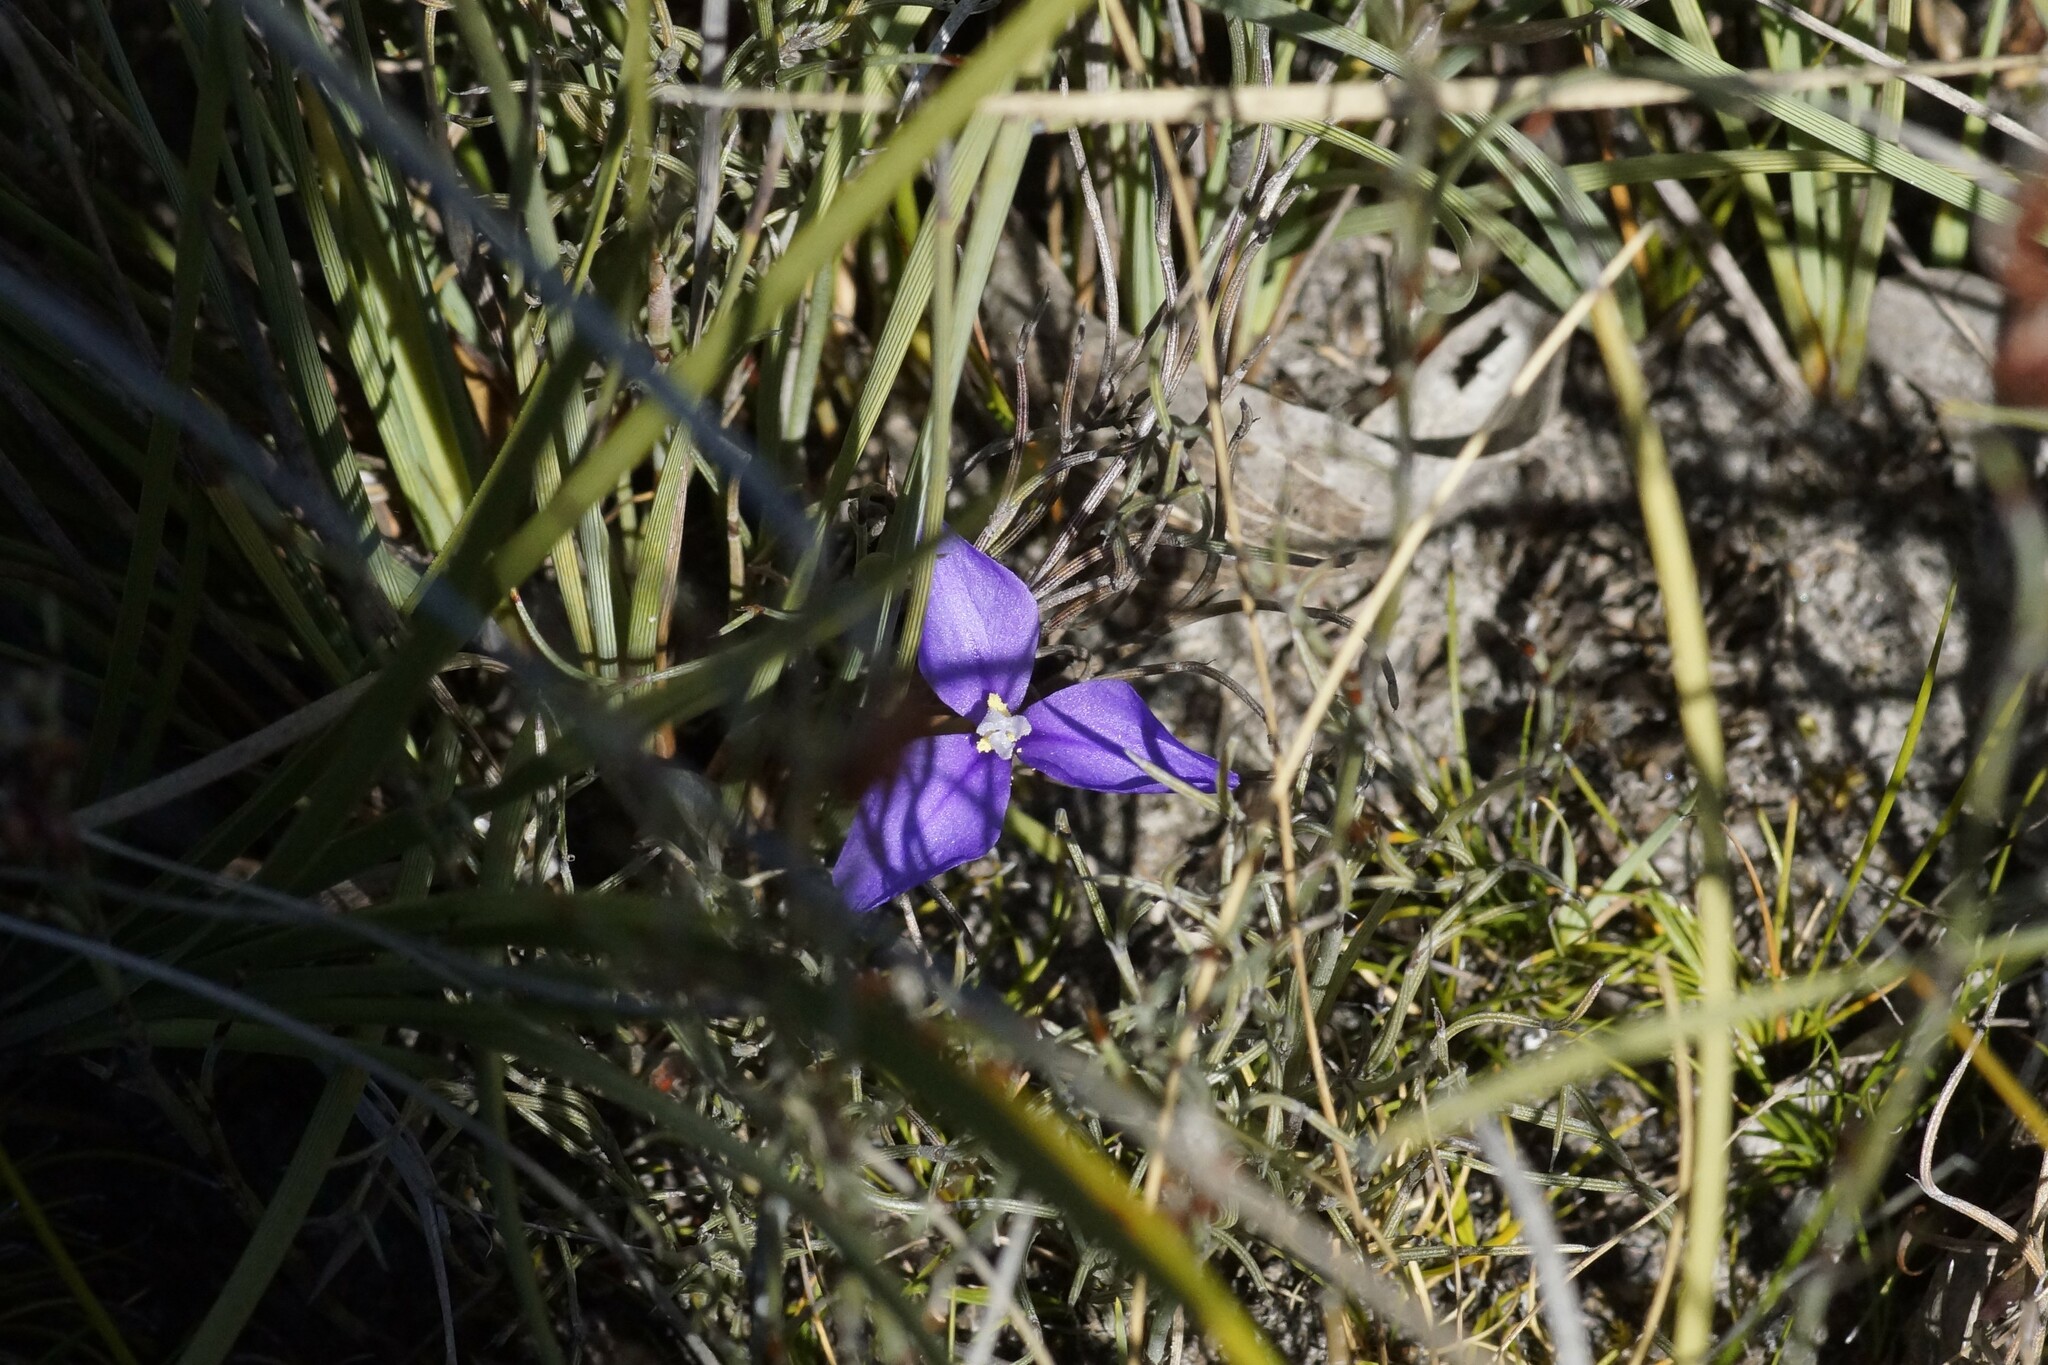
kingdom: Plantae
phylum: Tracheophyta
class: Liliopsida
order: Asparagales
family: Iridaceae
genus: Patersonia
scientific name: Patersonia fragilis
